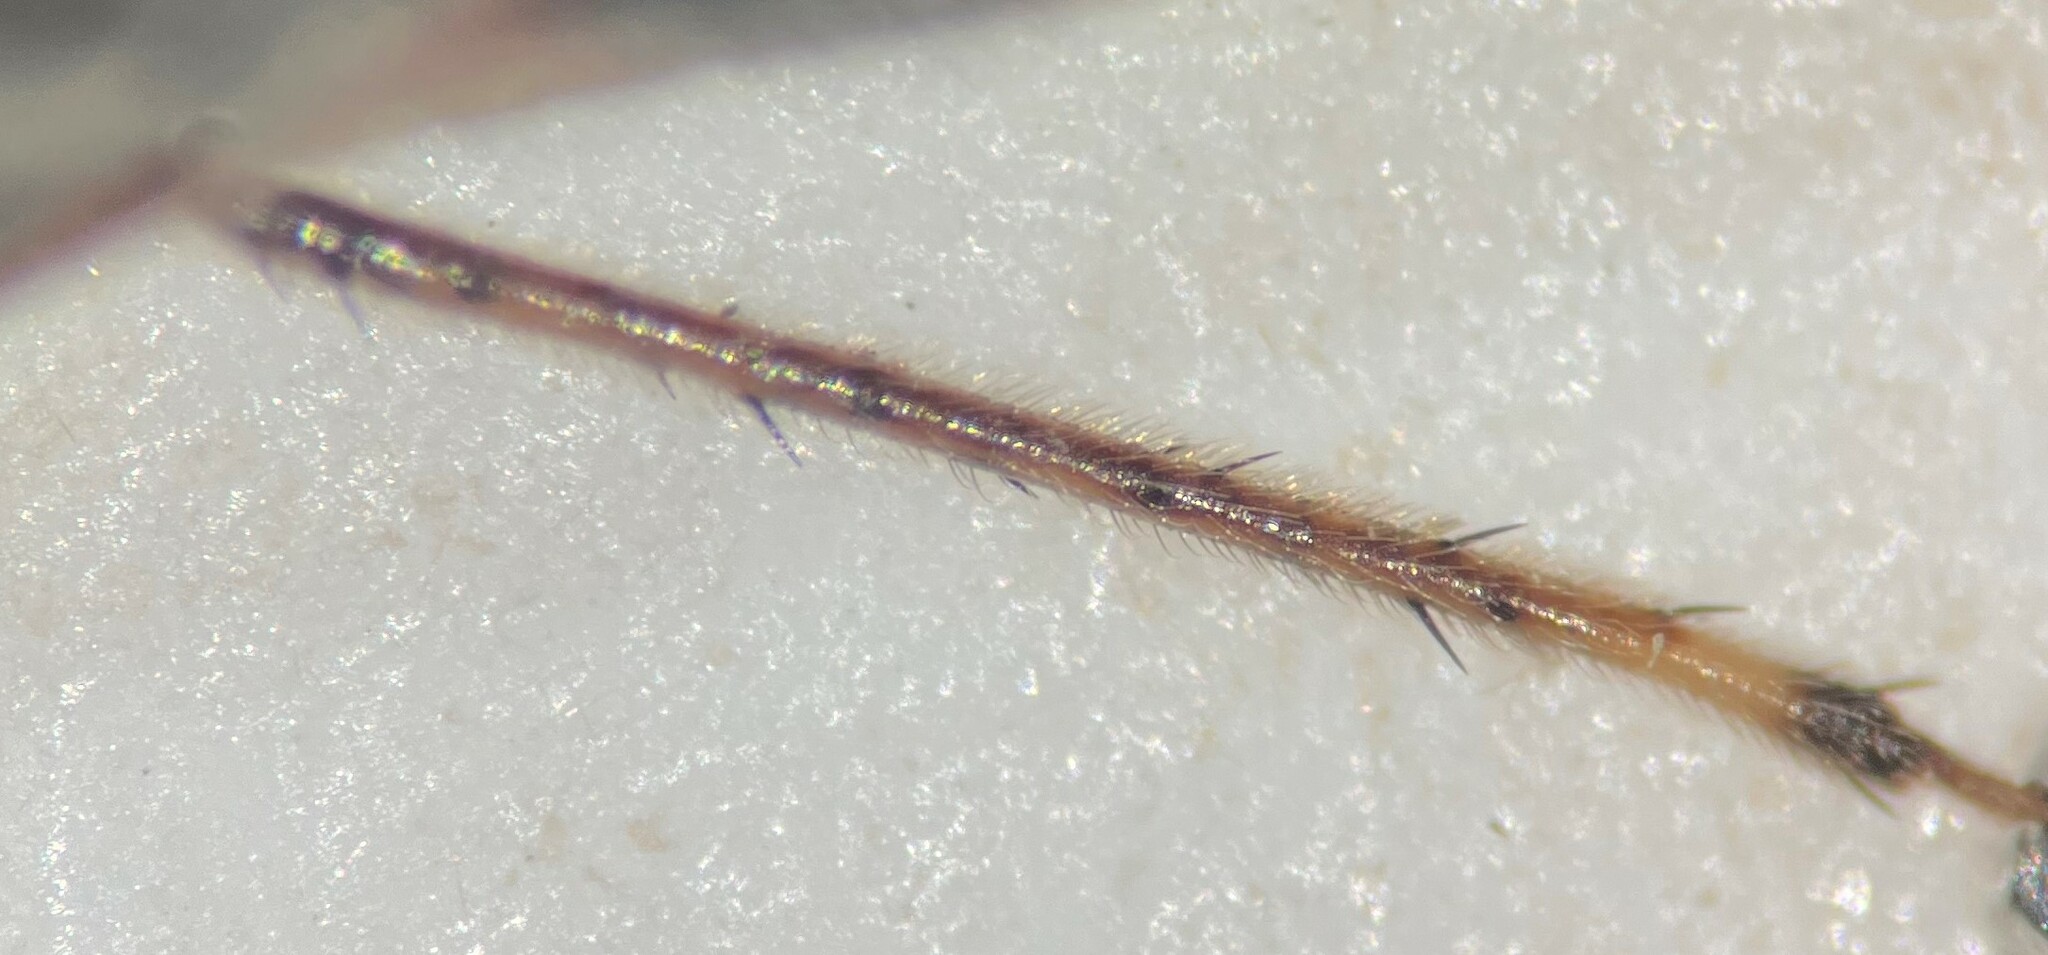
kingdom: Animalia
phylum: Arthropoda
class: Insecta
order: Hemiptera
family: Saldidae
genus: Pentacora
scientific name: Pentacora ligata
